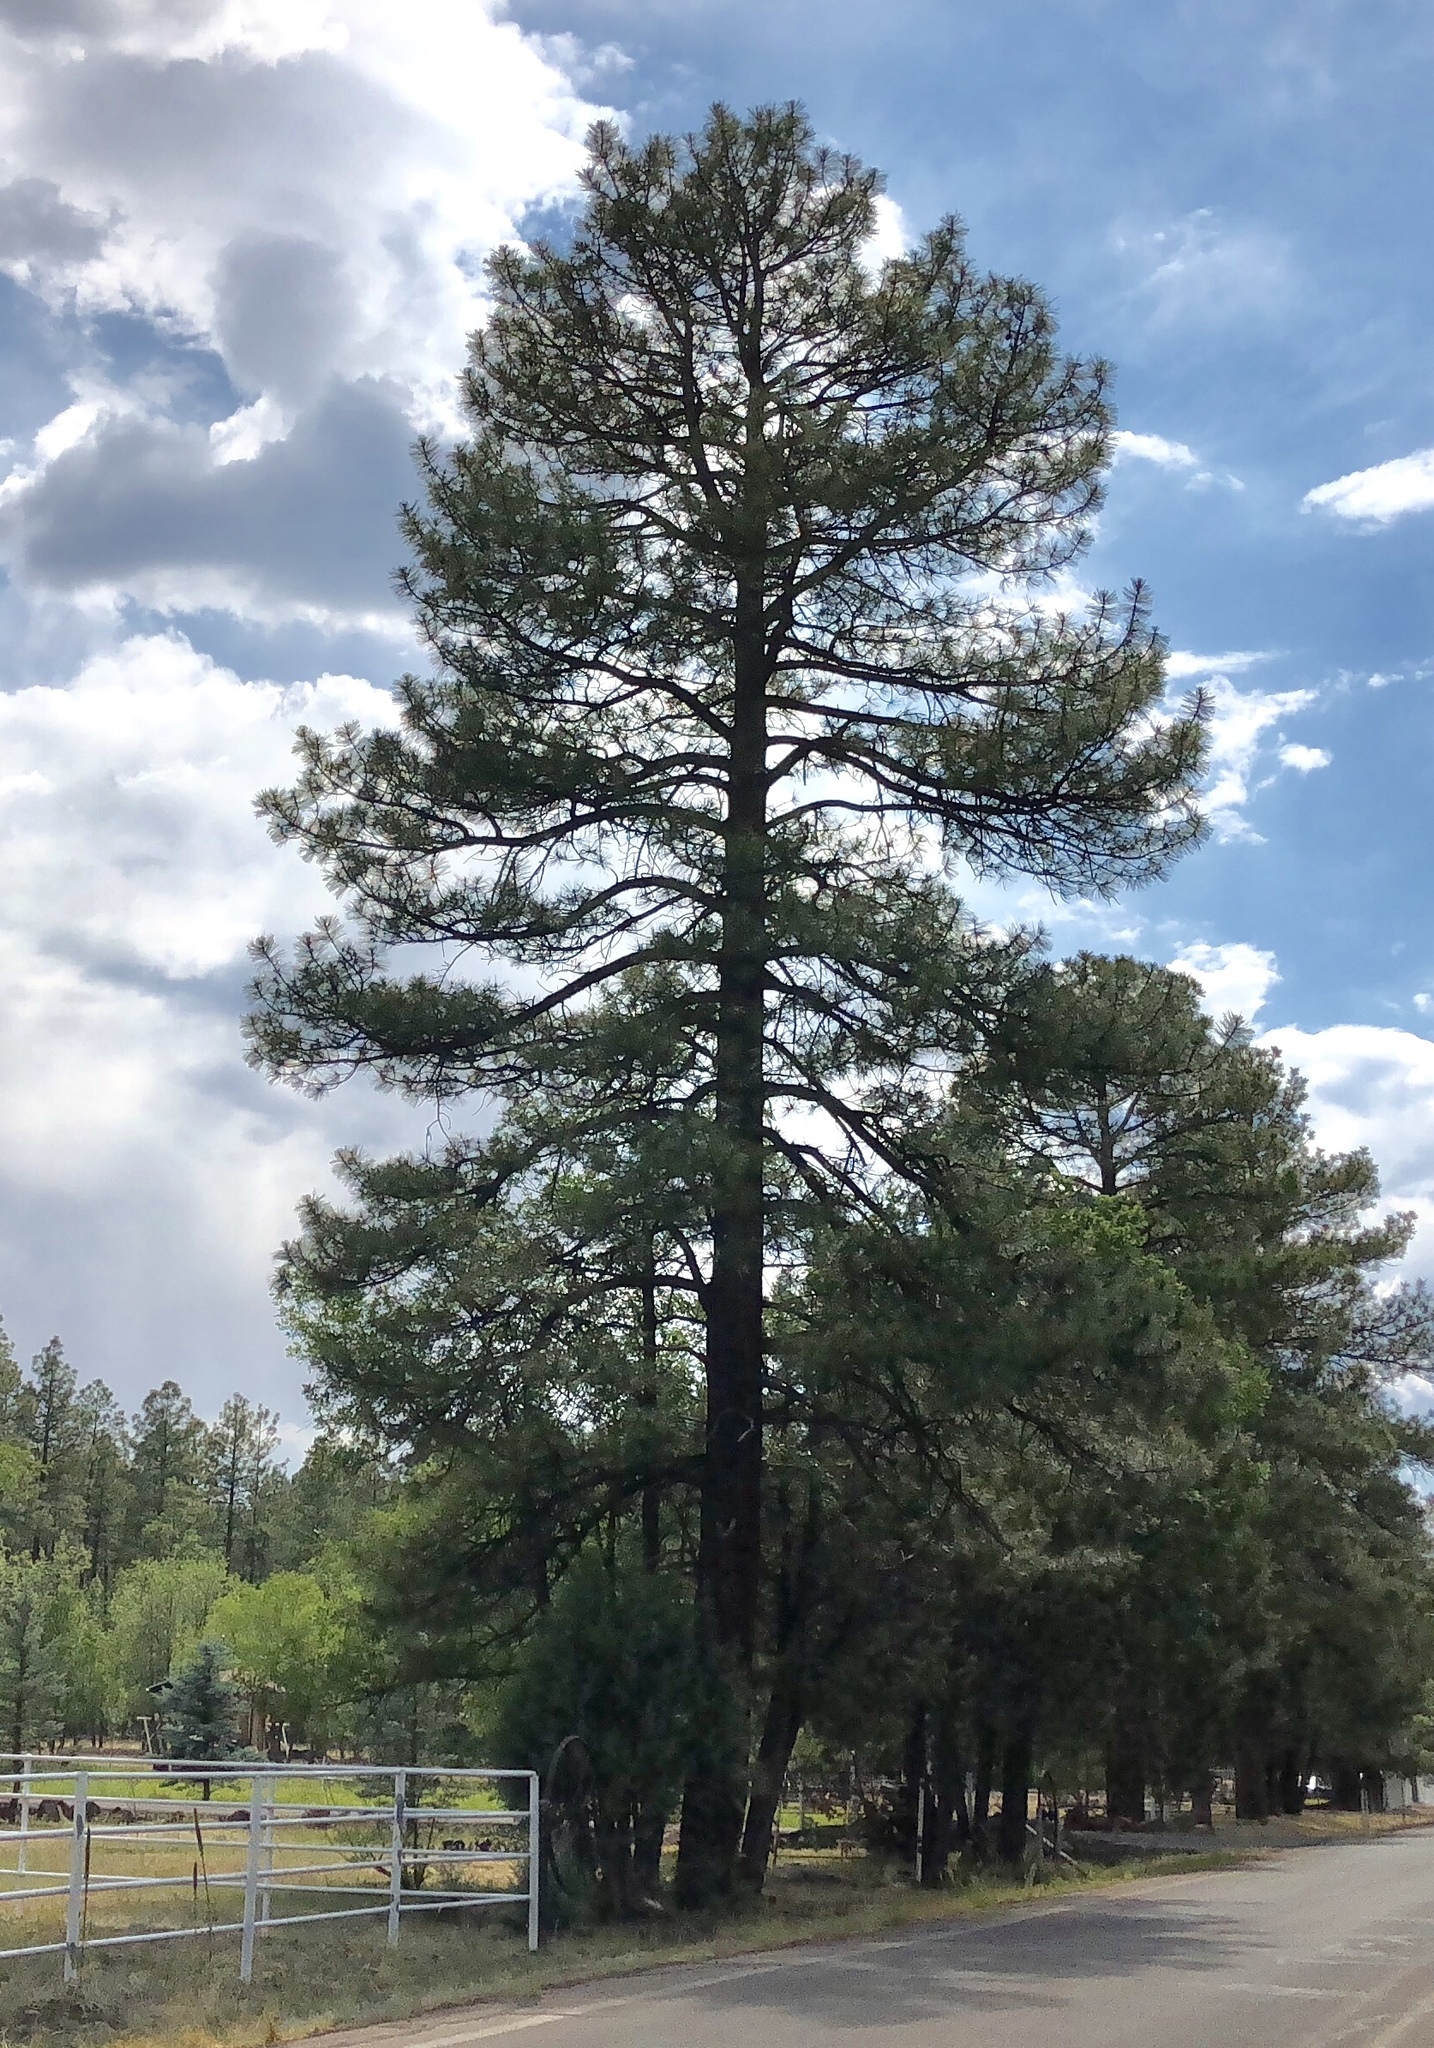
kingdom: Plantae
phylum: Tracheophyta
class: Pinopsida
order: Pinales
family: Pinaceae
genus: Pinus
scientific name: Pinus ponderosa
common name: Western yellow-pine
